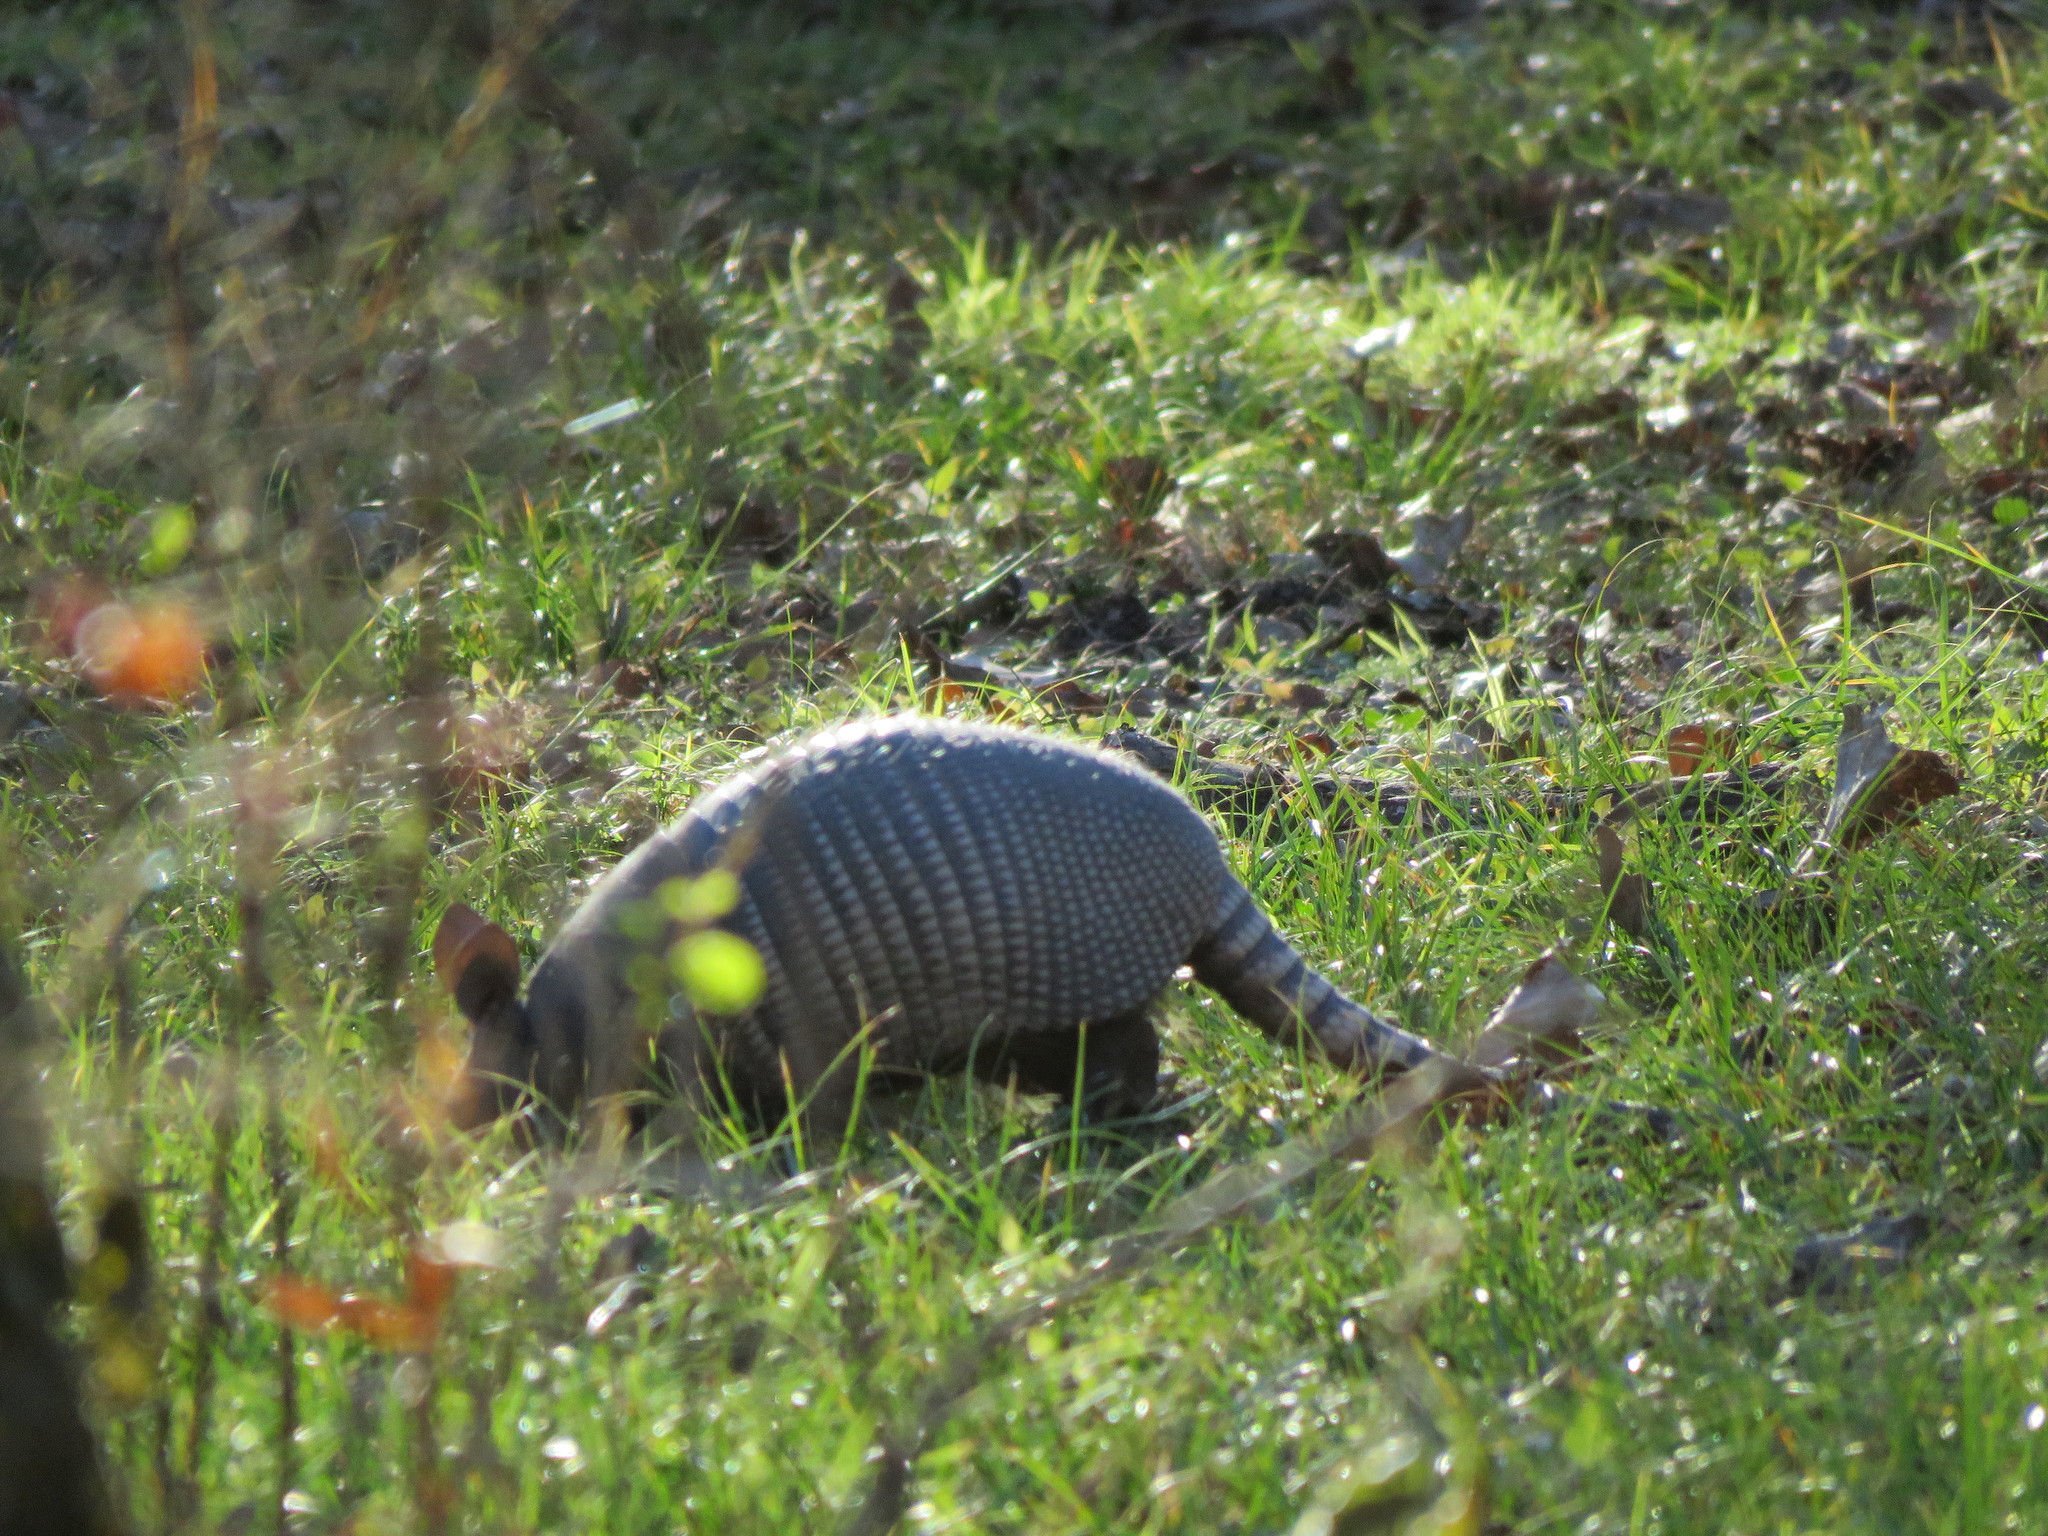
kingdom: Animalia
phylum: Chordata
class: Mammalia
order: Cingulata
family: Dasypodidae
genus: Dasypus
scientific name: Dasypus novemcinctus
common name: Nine-banded armadillo
